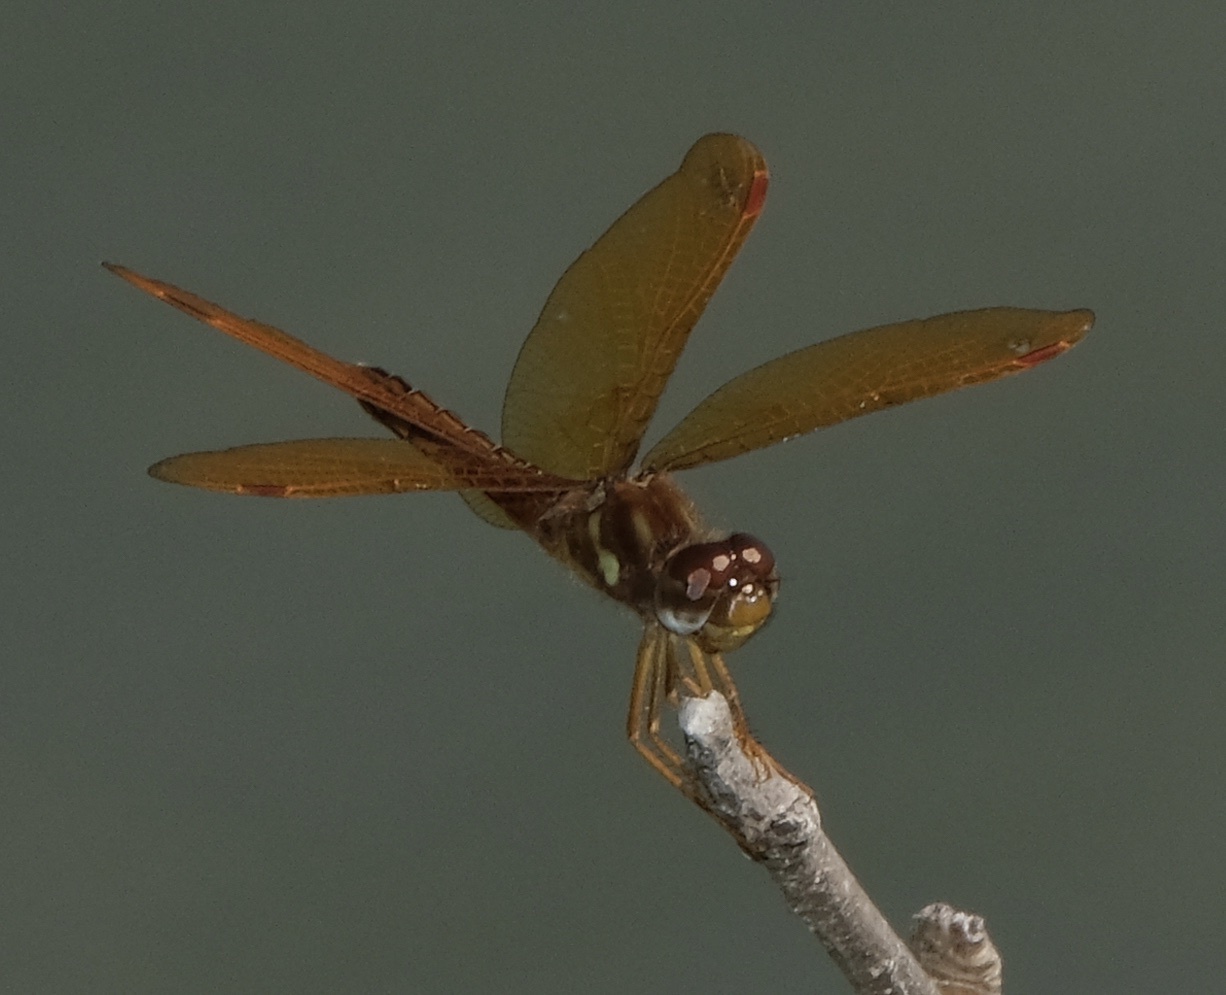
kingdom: Animalia
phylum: Arthropoda
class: Insecta
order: Odonata
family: Libellulidae
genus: Perithemis
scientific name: Perithemis tenera
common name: Eastern amberwing
